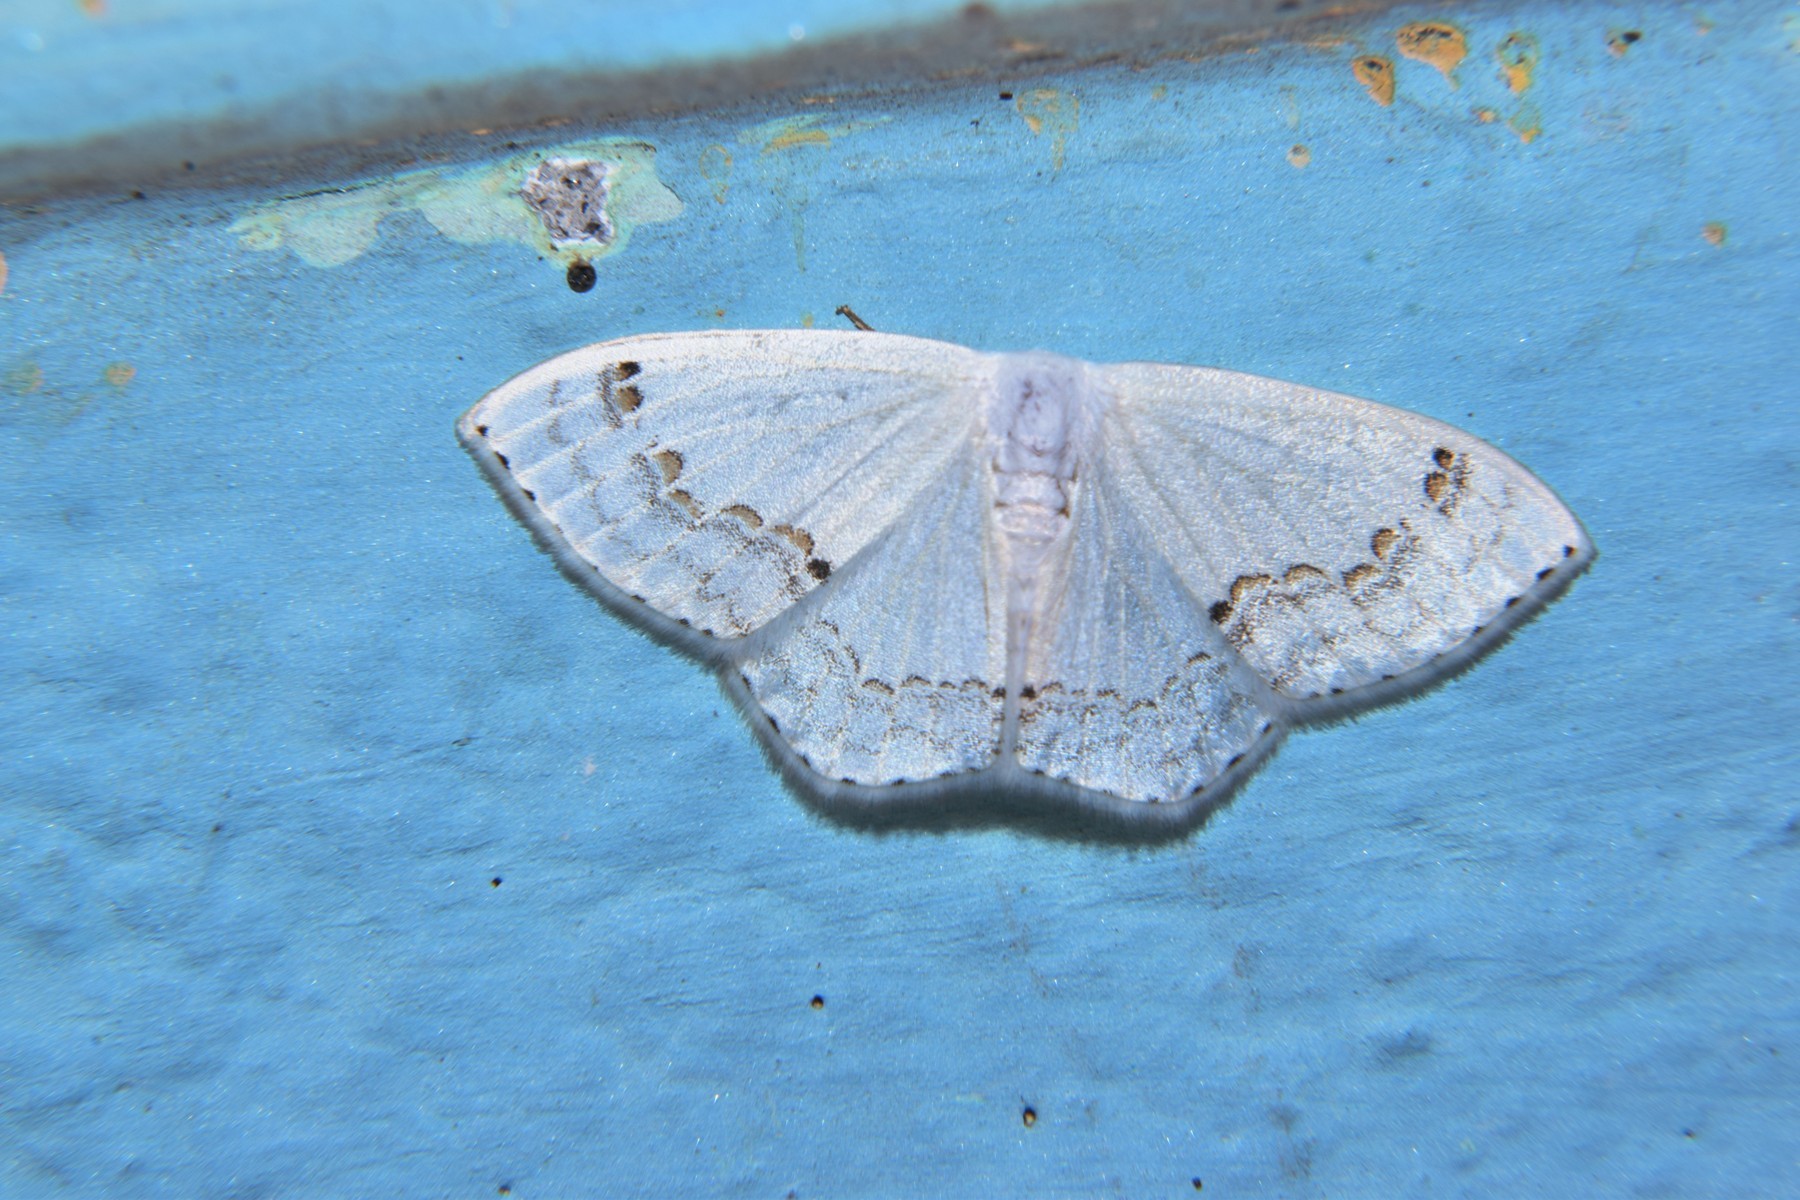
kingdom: Animalia
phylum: Arthropoda
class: Insecta
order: Lepidoptera
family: Drepanidae
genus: Teldenia
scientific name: Teldenia vestigiata
